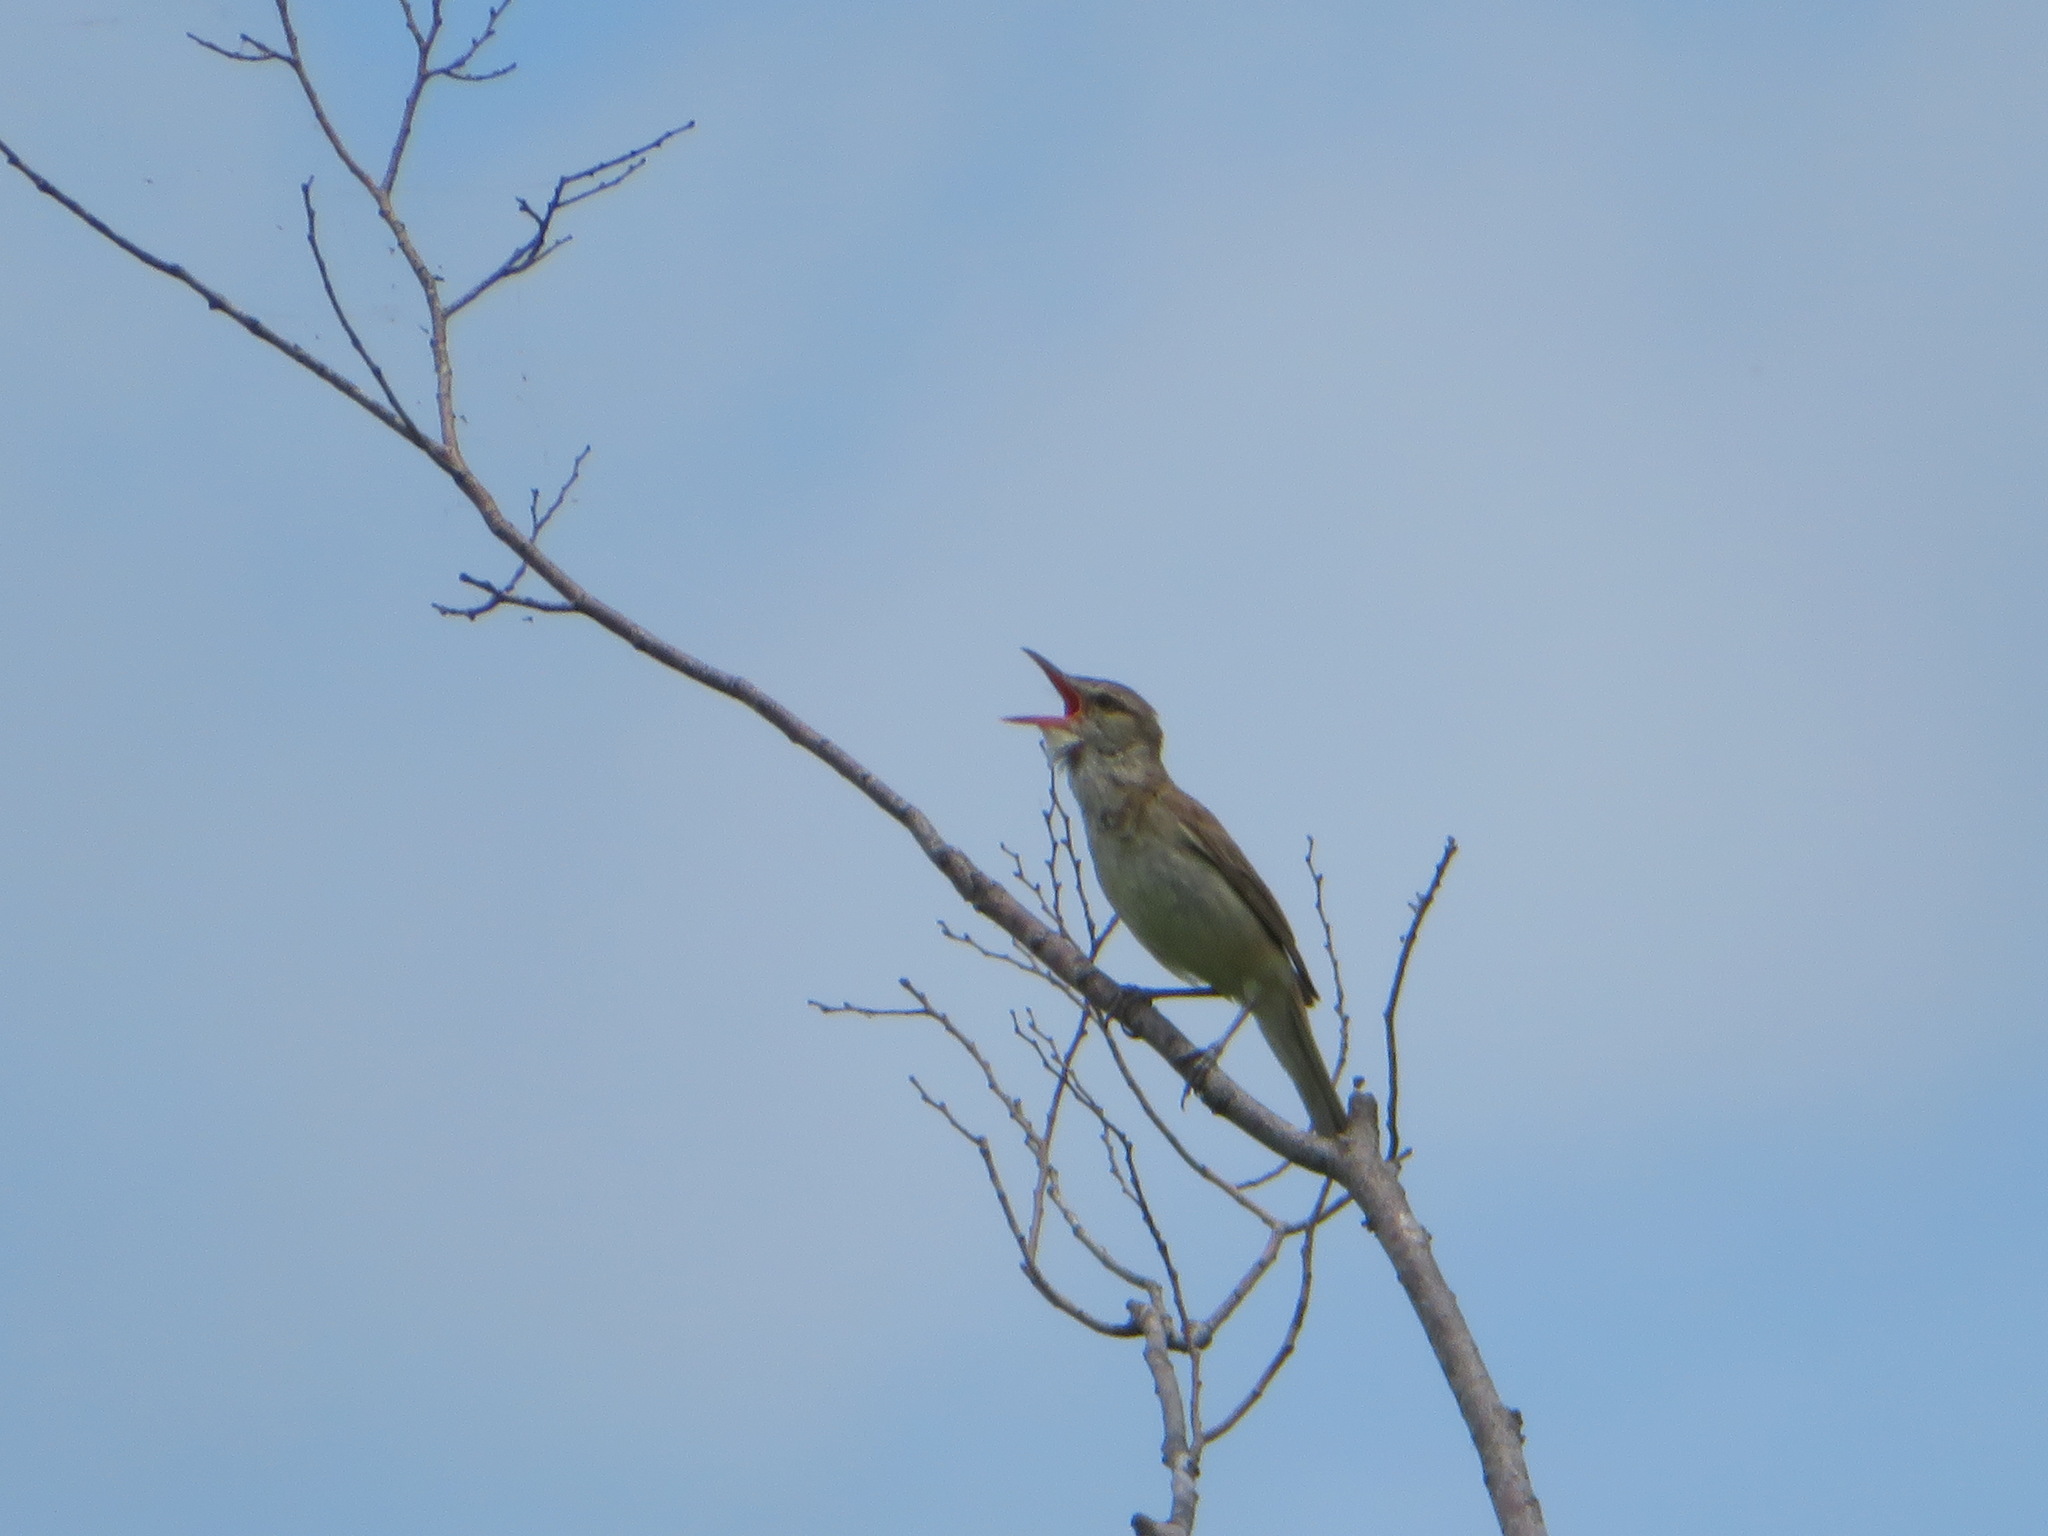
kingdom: Animalia
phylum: Chordata
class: Aves
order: Passeriformes
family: Acrocephalidae
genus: Acrocephalus
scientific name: Acrocephalus orientalis
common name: Oriental reed warbler
